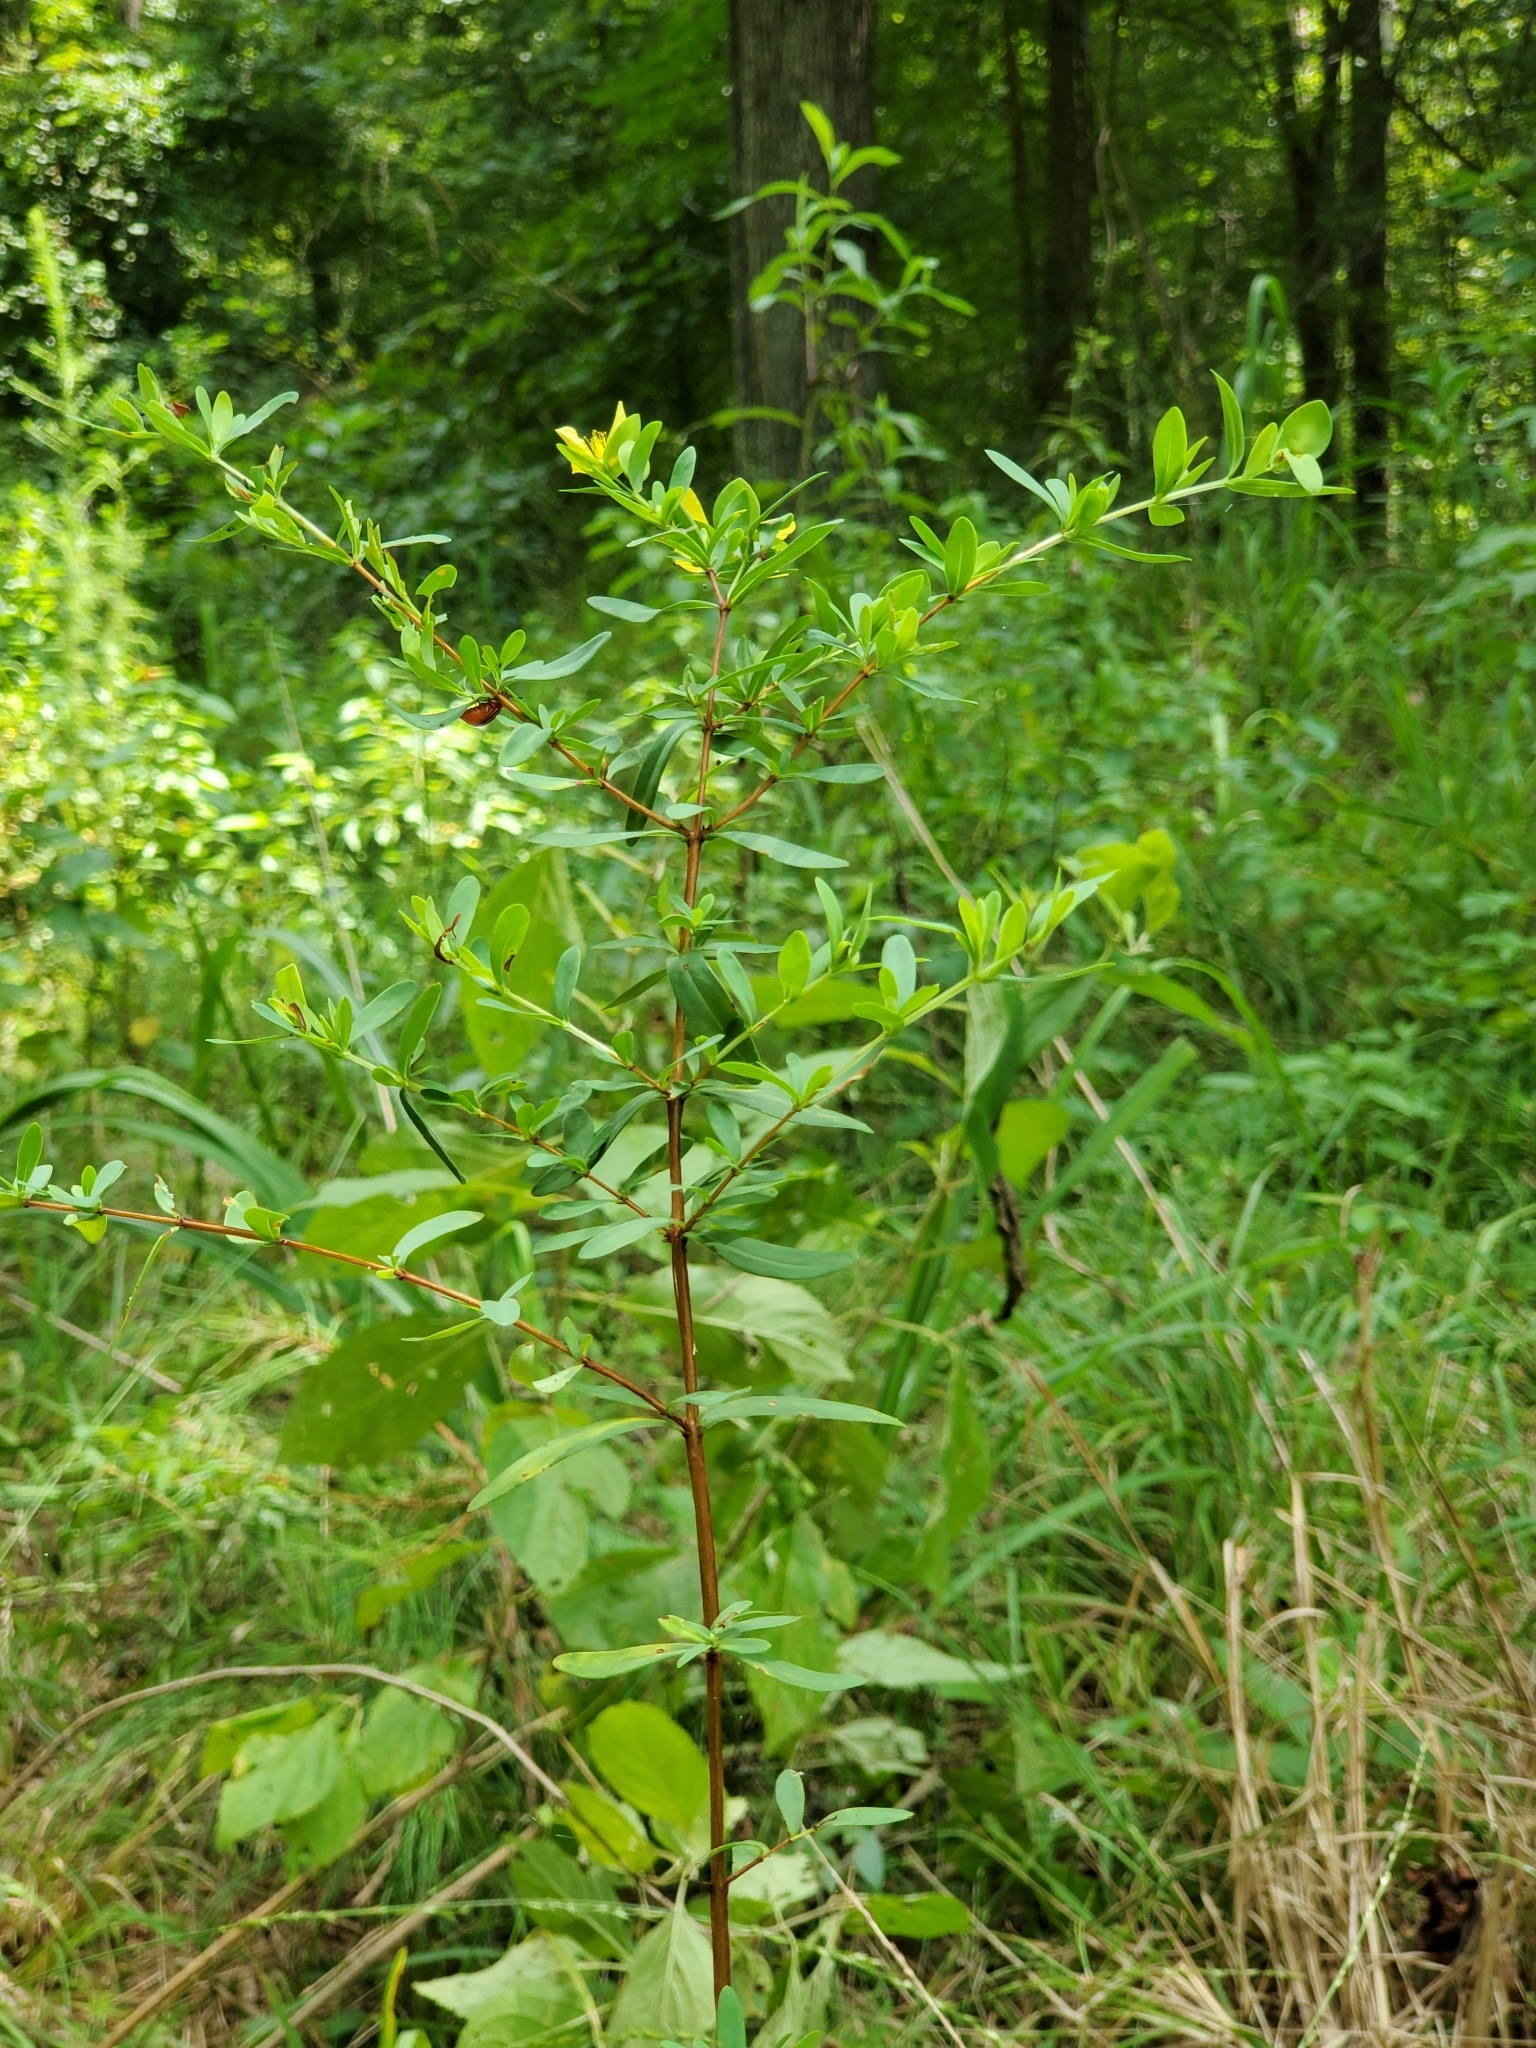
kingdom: Plantae
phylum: Tracheophyta
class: Magnoliopsida
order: Malpighiales
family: Hypericaceae
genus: Hypericum
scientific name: Hypericum hypericoides
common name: St. andrew's cross
